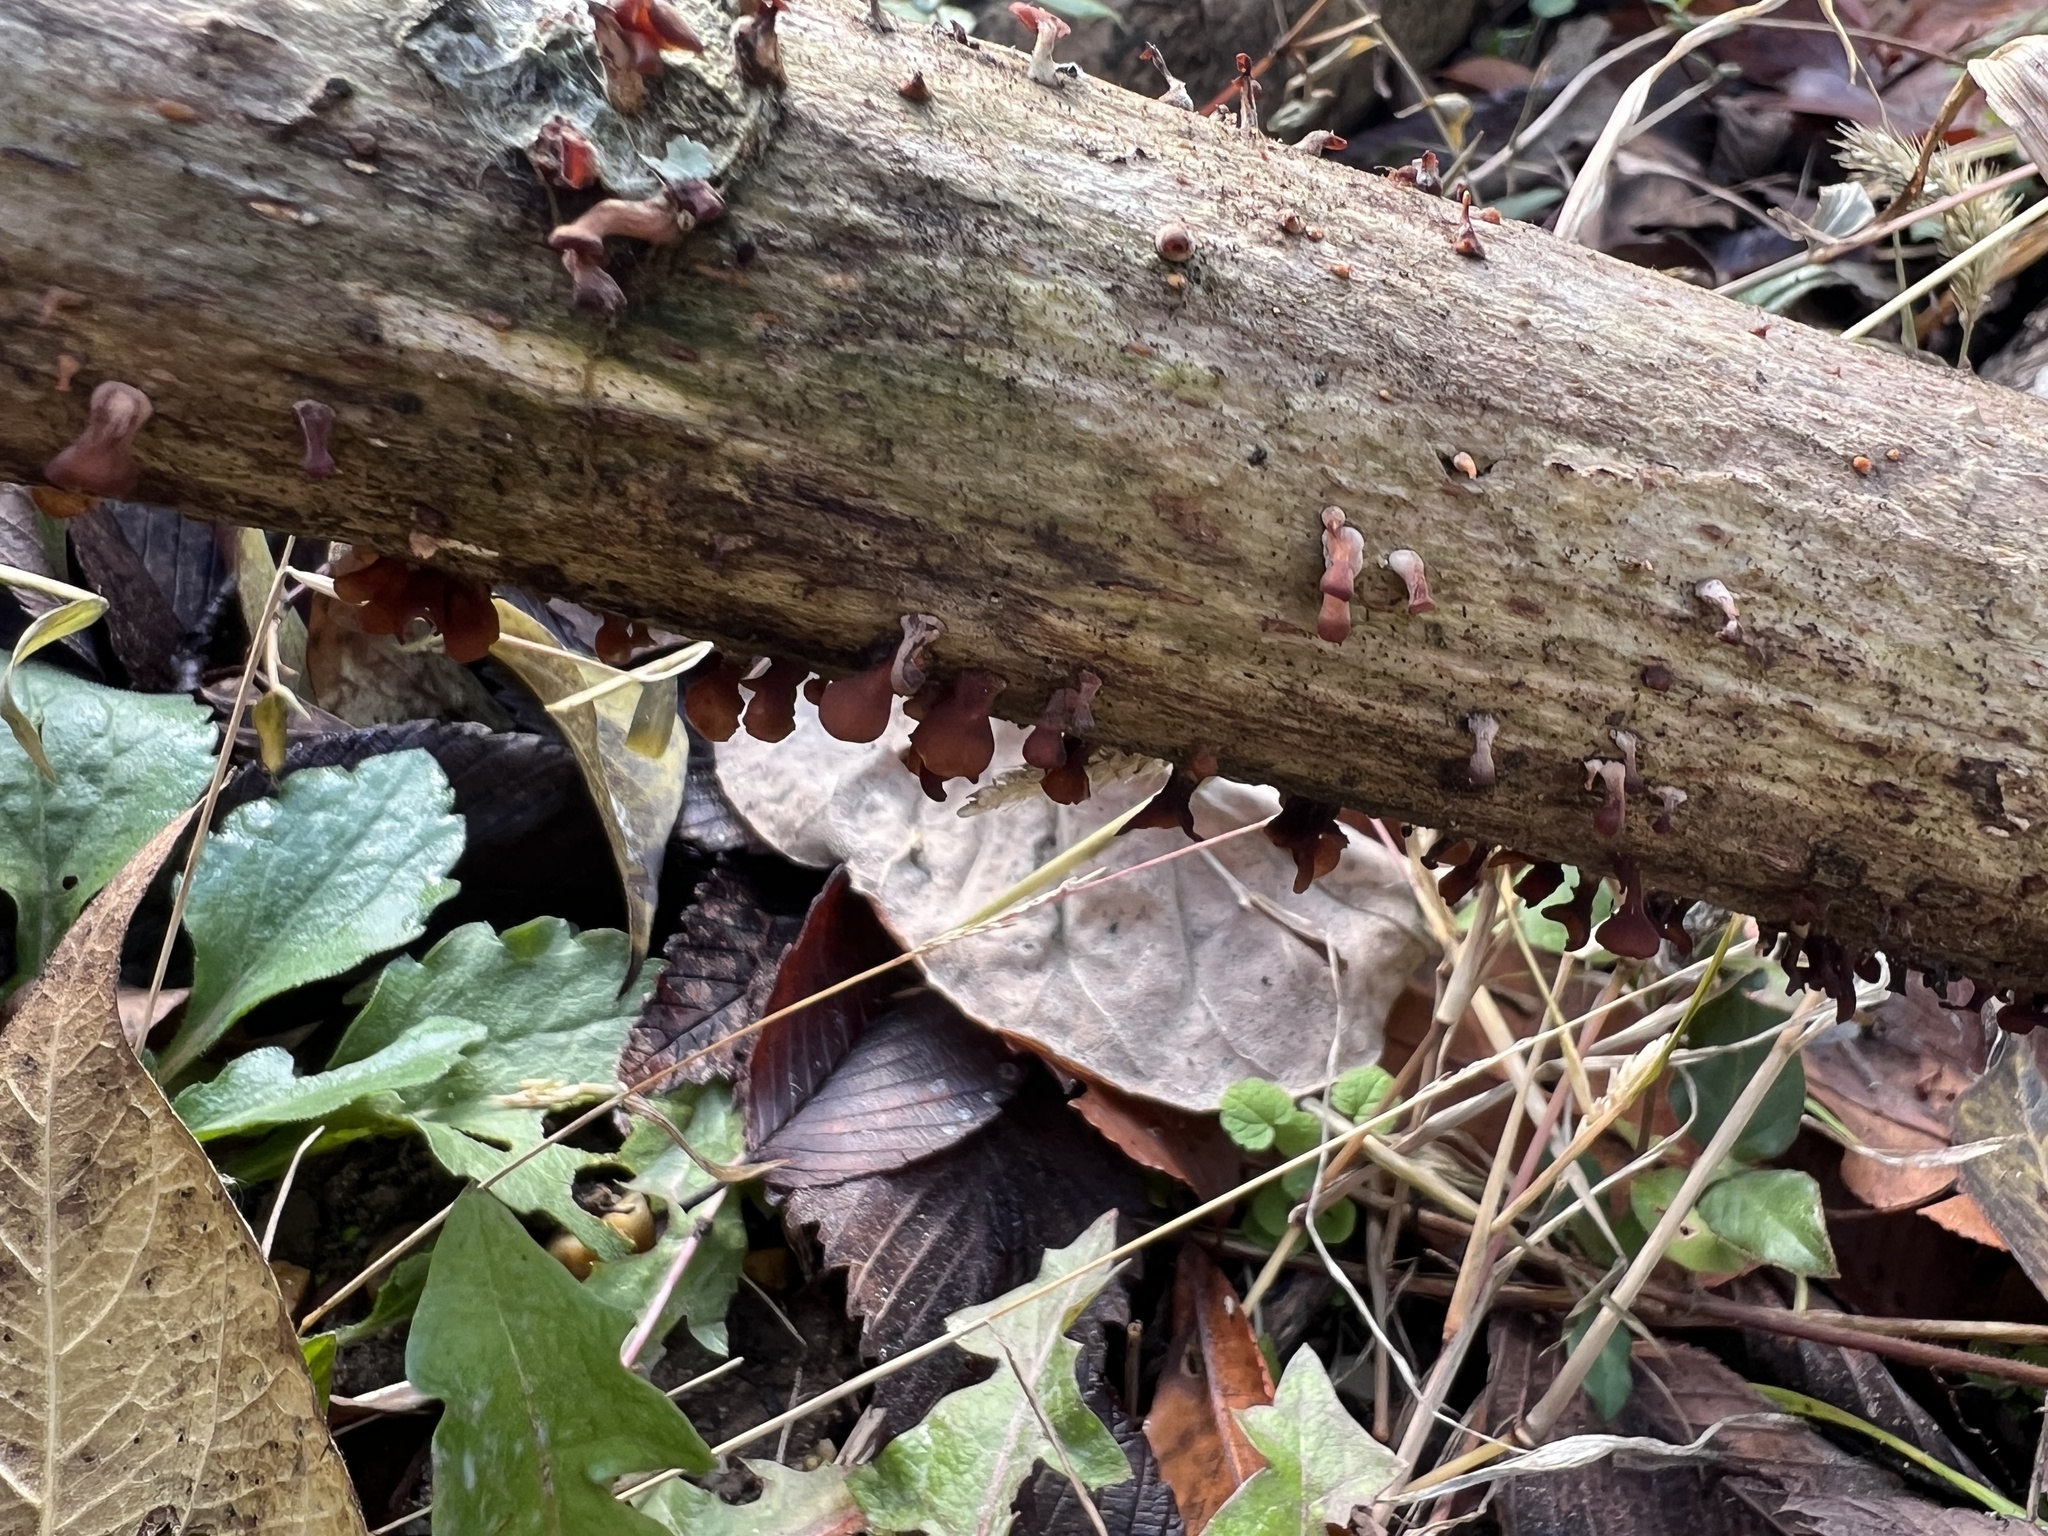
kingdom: Fungi
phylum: Basidiomycota
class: Dacrymycetes
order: Dacrymycetales
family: Dacrymycetaceae
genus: Dacryopinax
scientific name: Dacryopinax elegans
